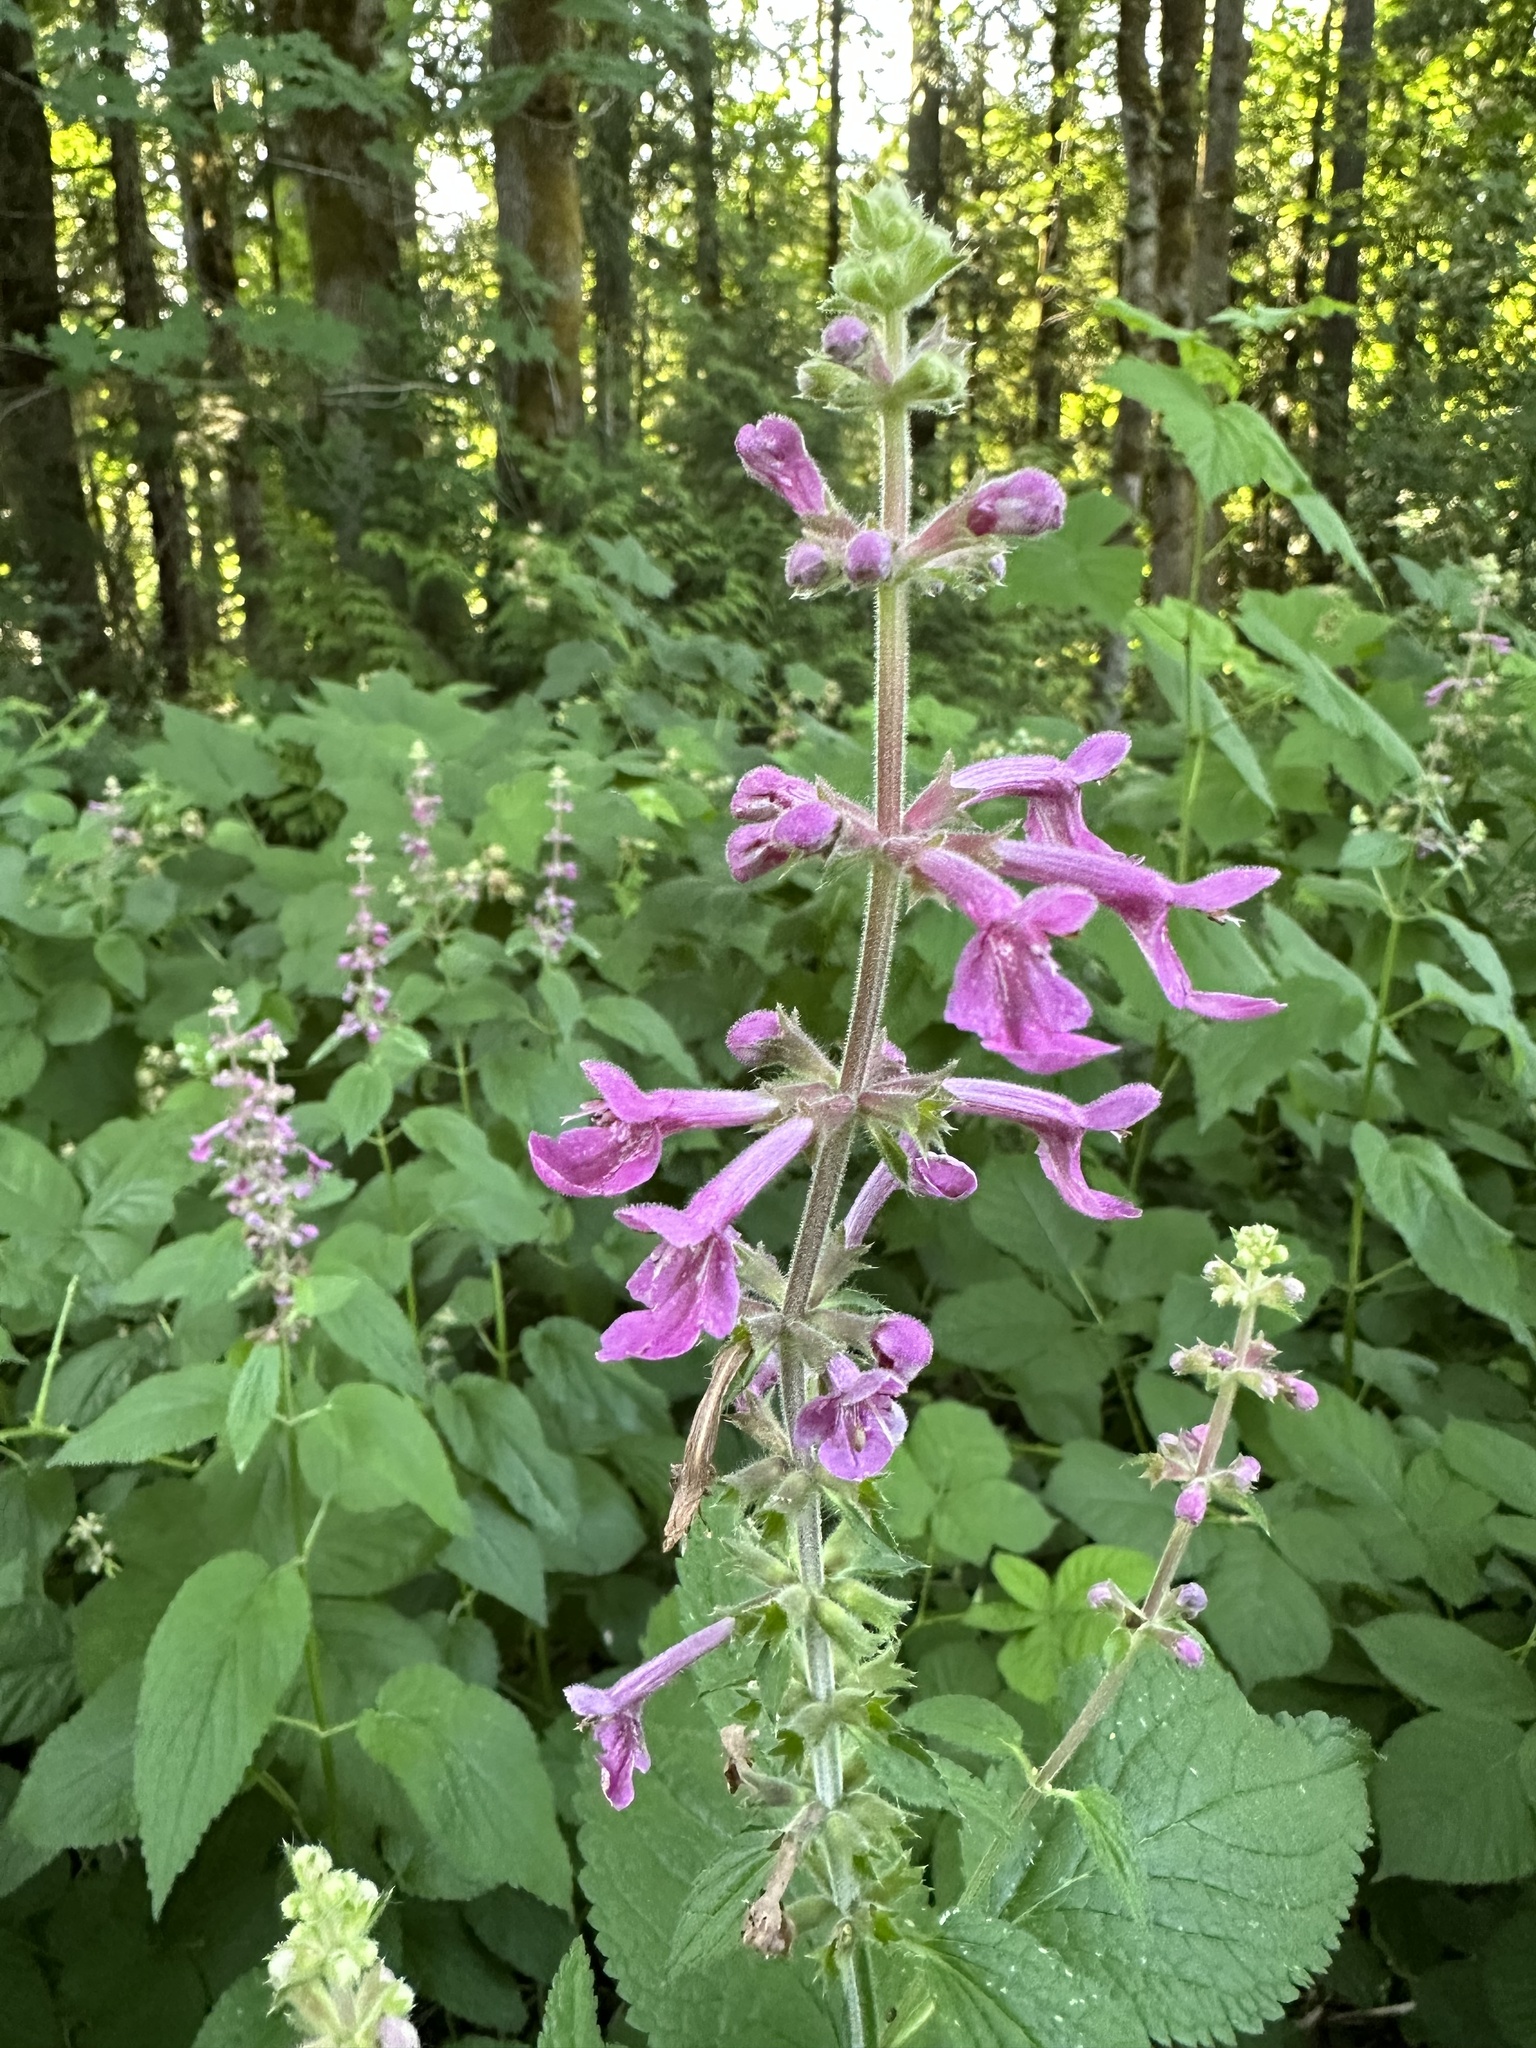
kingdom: Plantae
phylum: Tracheophyta
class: Magnoliopsida
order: Lamiales
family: Lamiaceae
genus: Stachys
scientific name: Stachys chamissonis
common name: Coastal hedge-nettle
